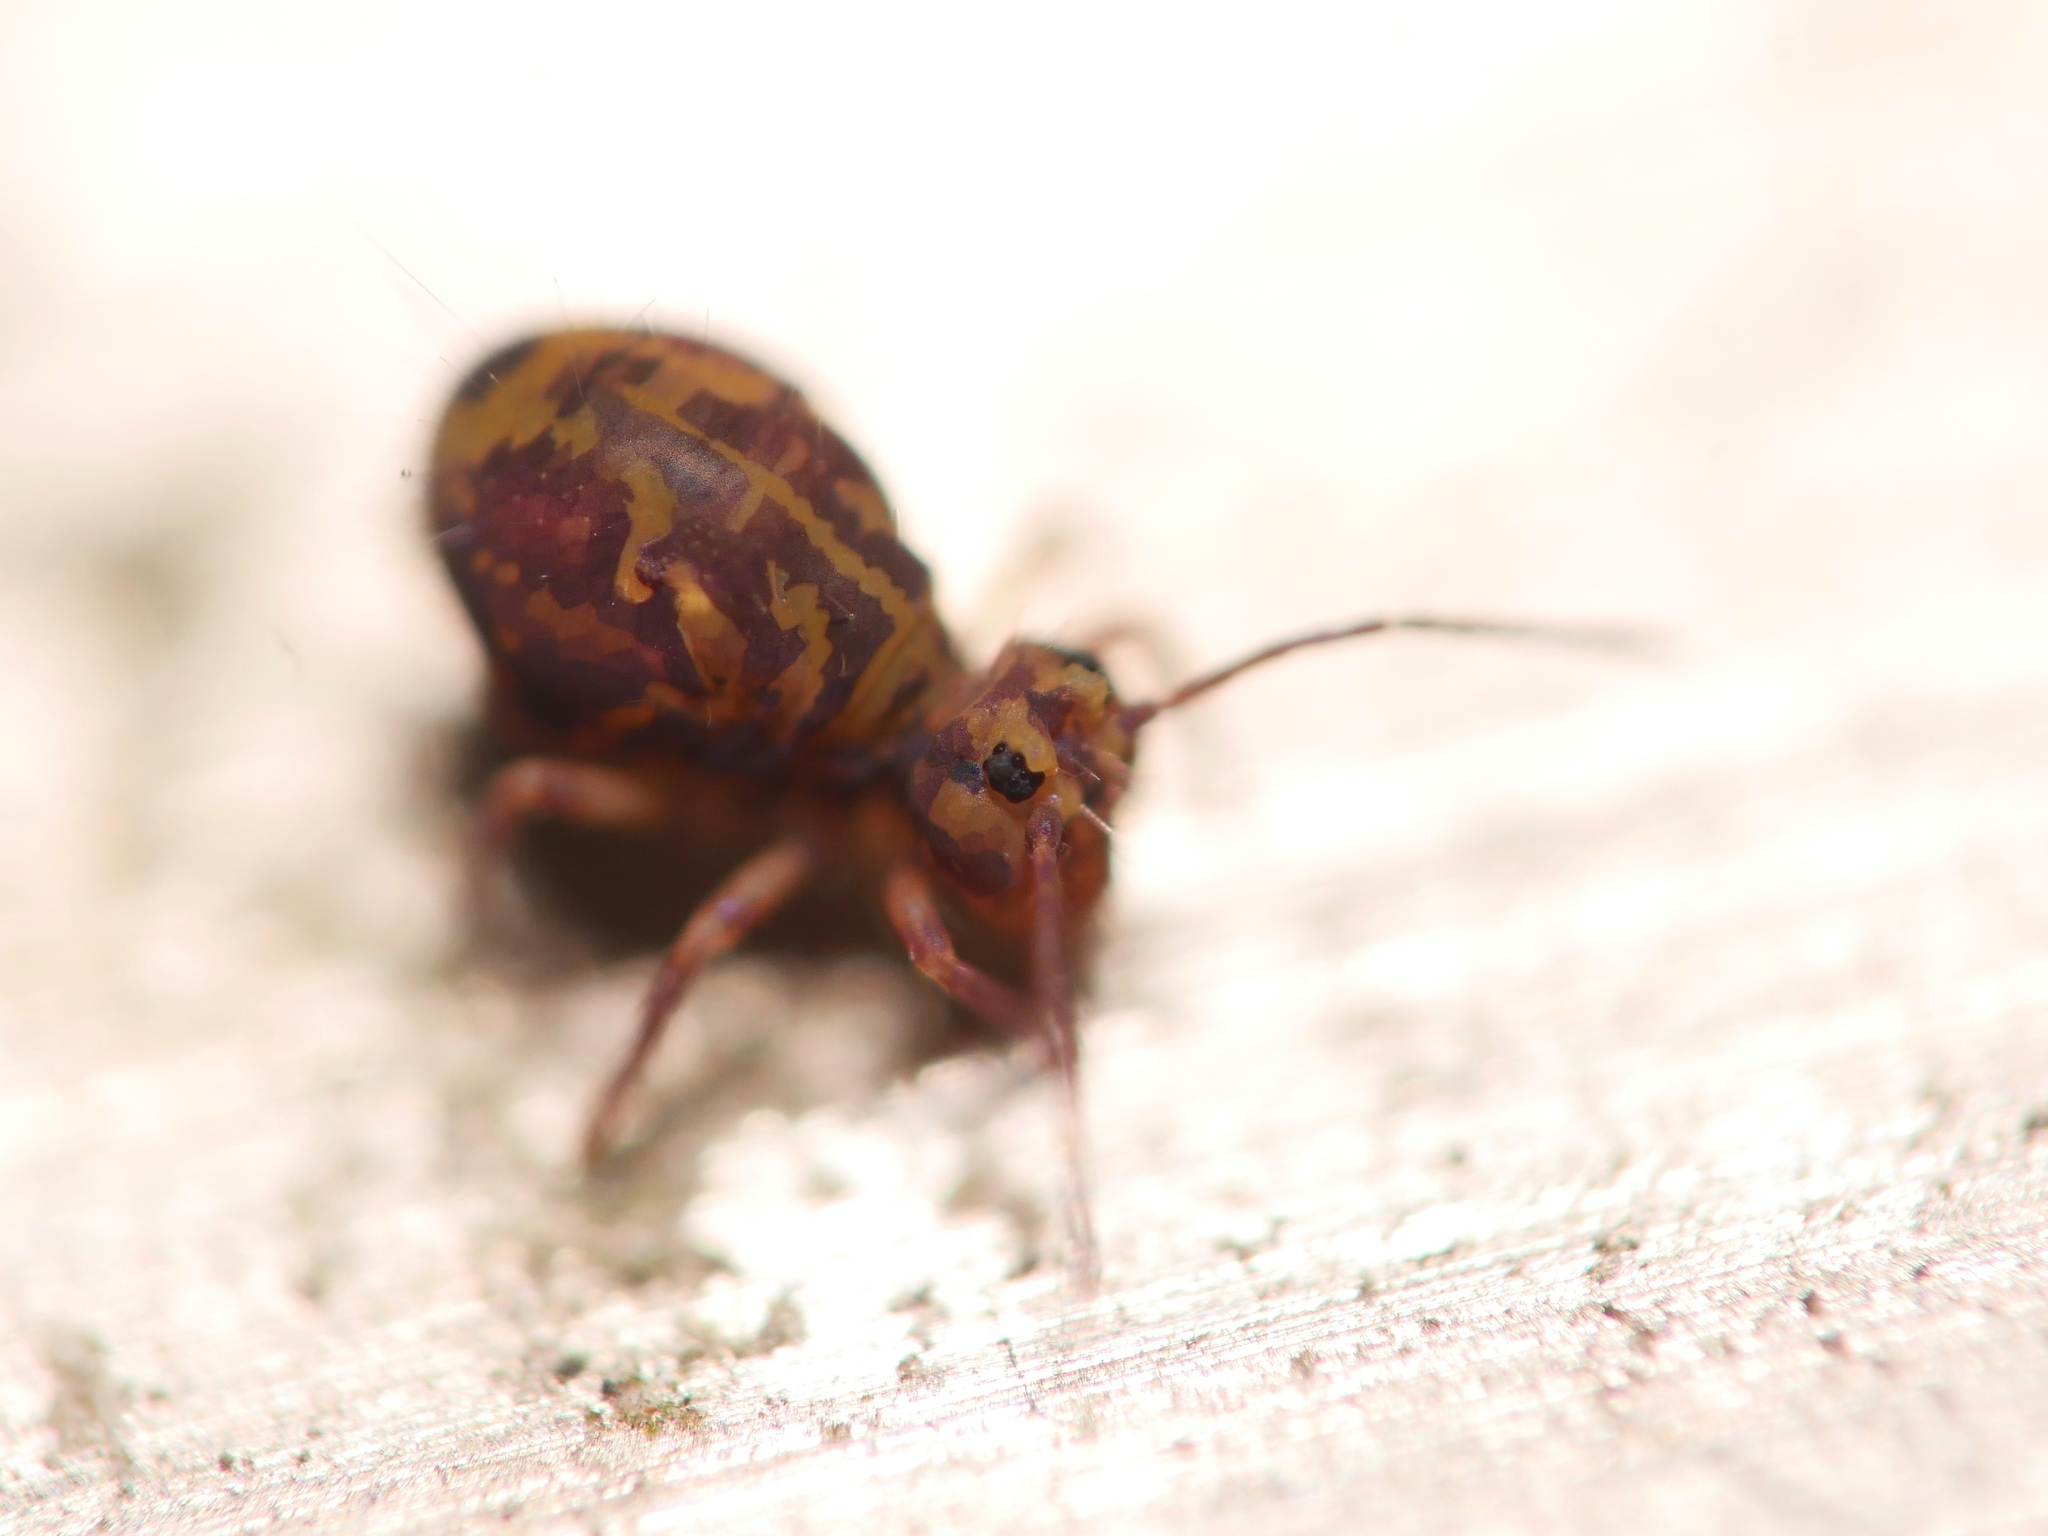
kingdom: Animalia
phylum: Arthropoda
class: Collembola
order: Symphypleona
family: Dicyrtomidae
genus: Dicyrtomina
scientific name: Dicyrtomina ornata
